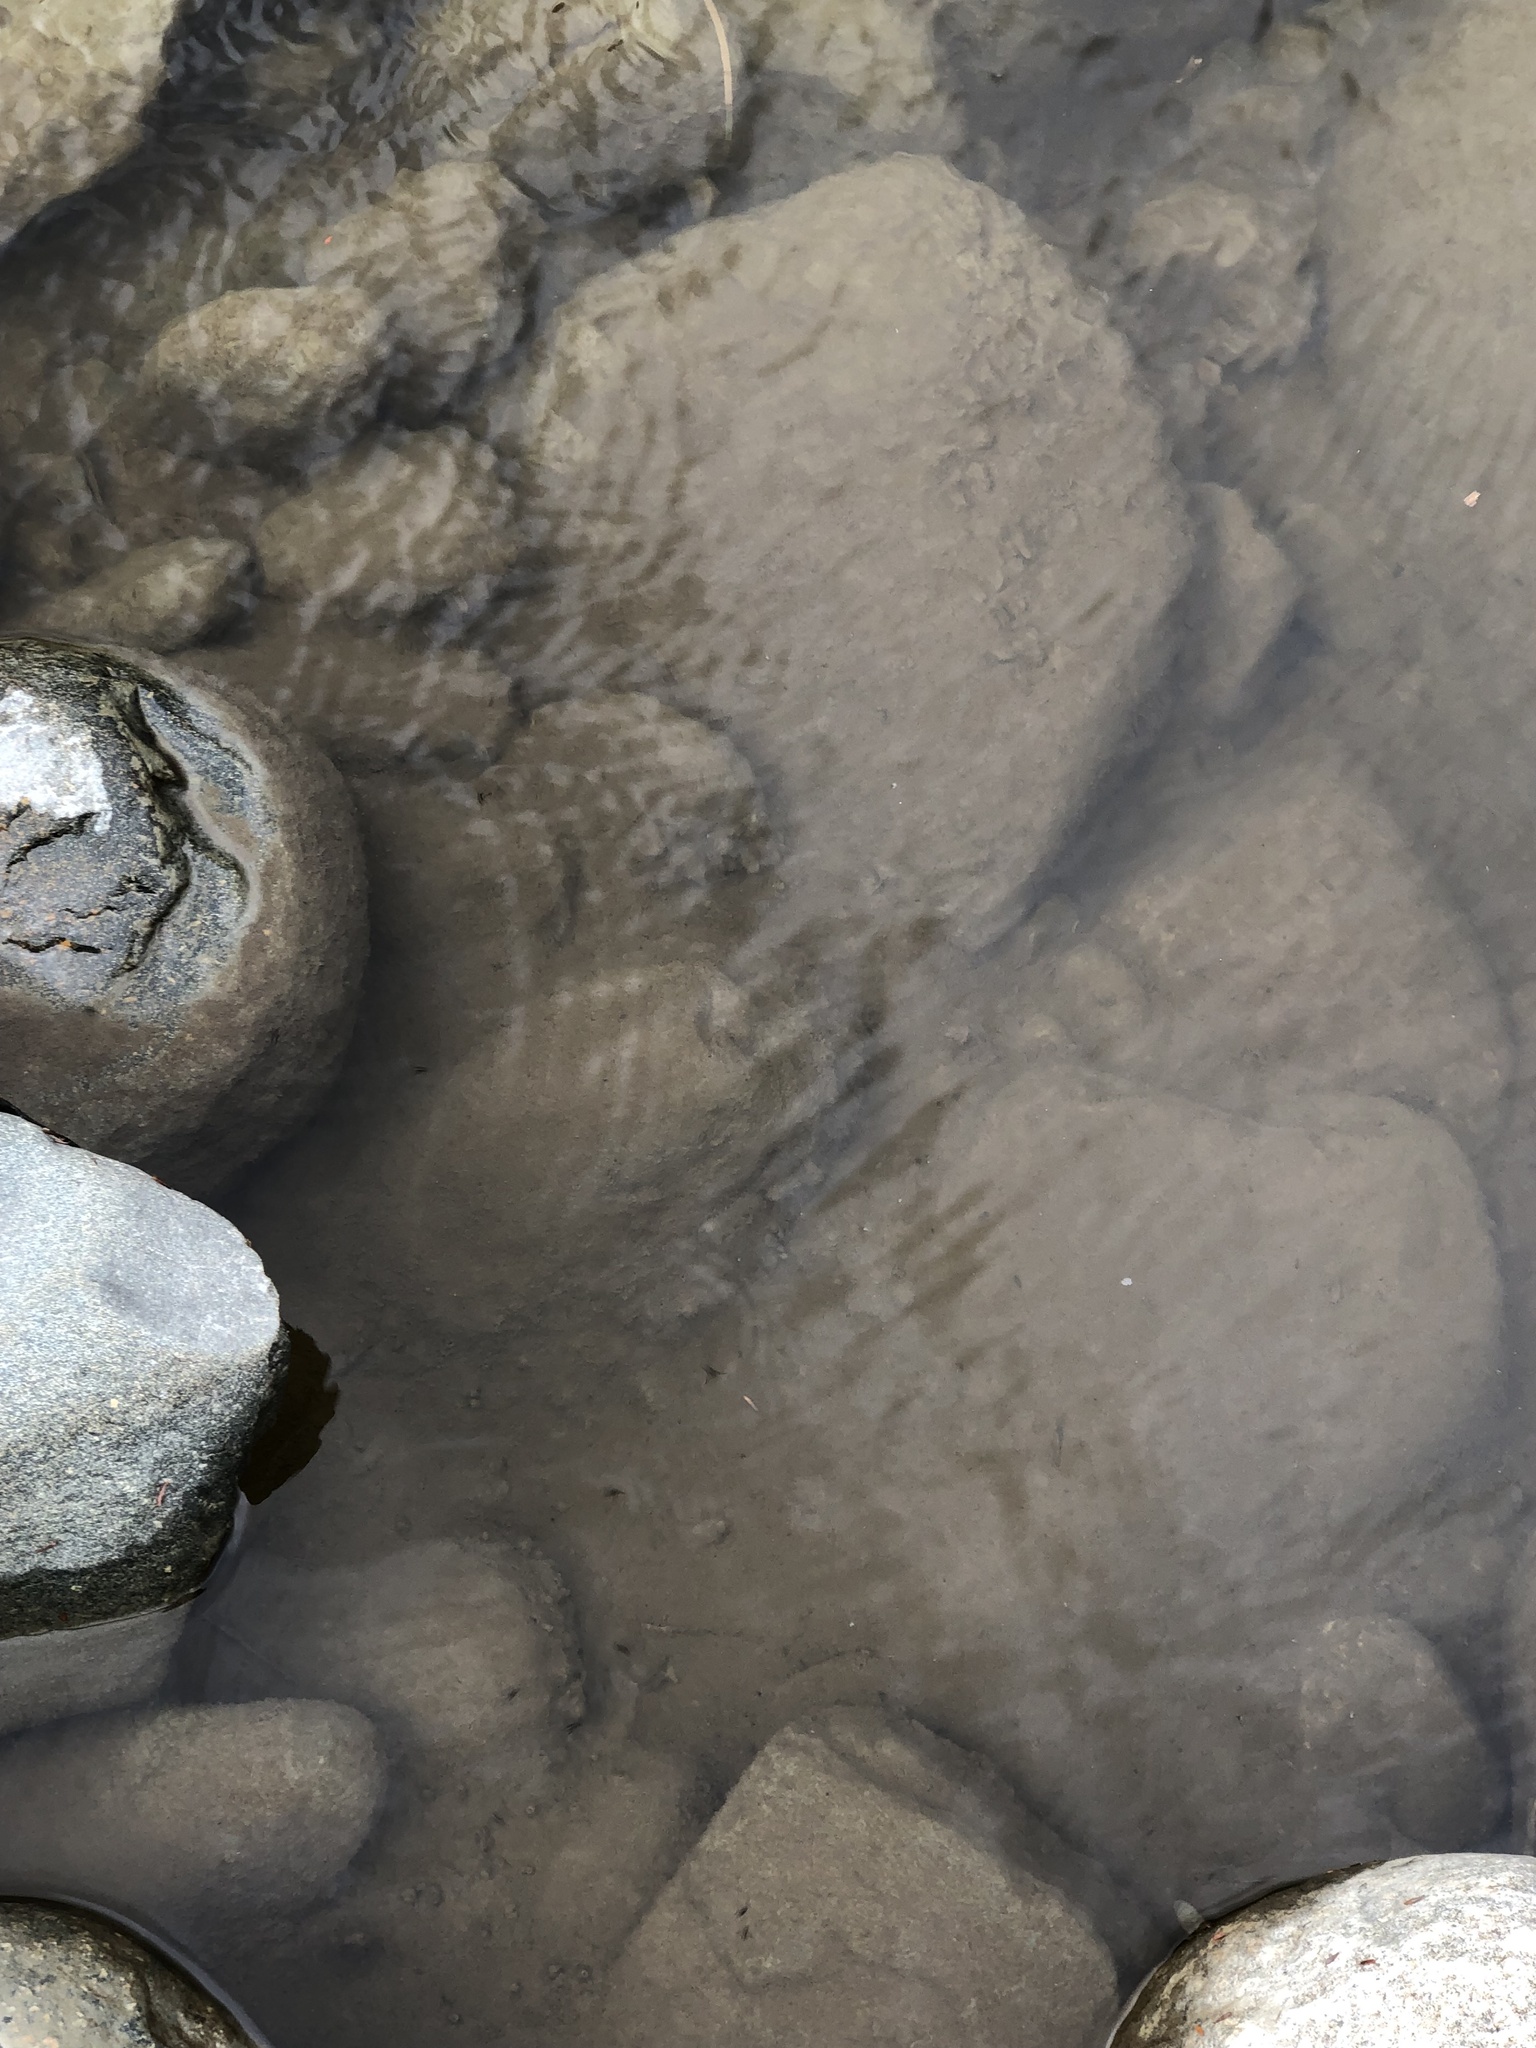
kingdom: Animalia
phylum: Arthropoda
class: Insecta
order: Hemiptera
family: Veliidae
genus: Rhagovelia
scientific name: Rhagovelia obesa
